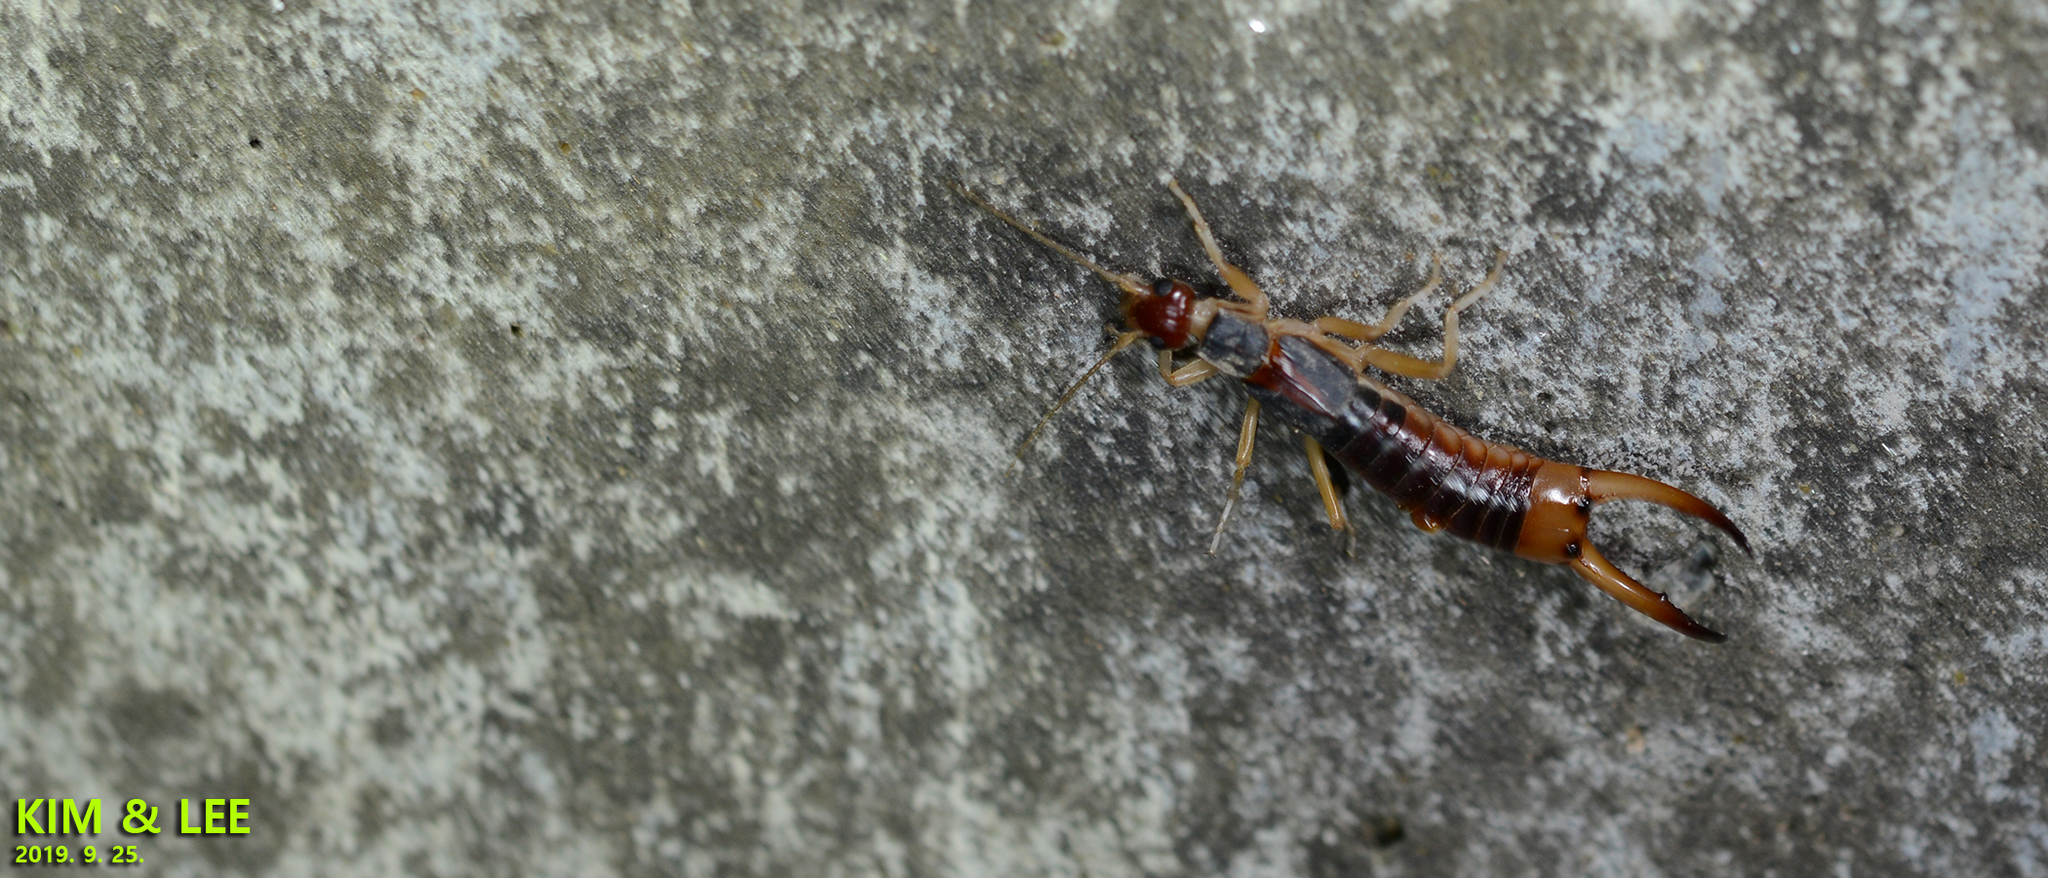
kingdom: Animalia
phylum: Arthropoda
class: Insecta
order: Dermaptera
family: Labiduridae
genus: Labidura
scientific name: Labidura riparia
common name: Striped earwig
